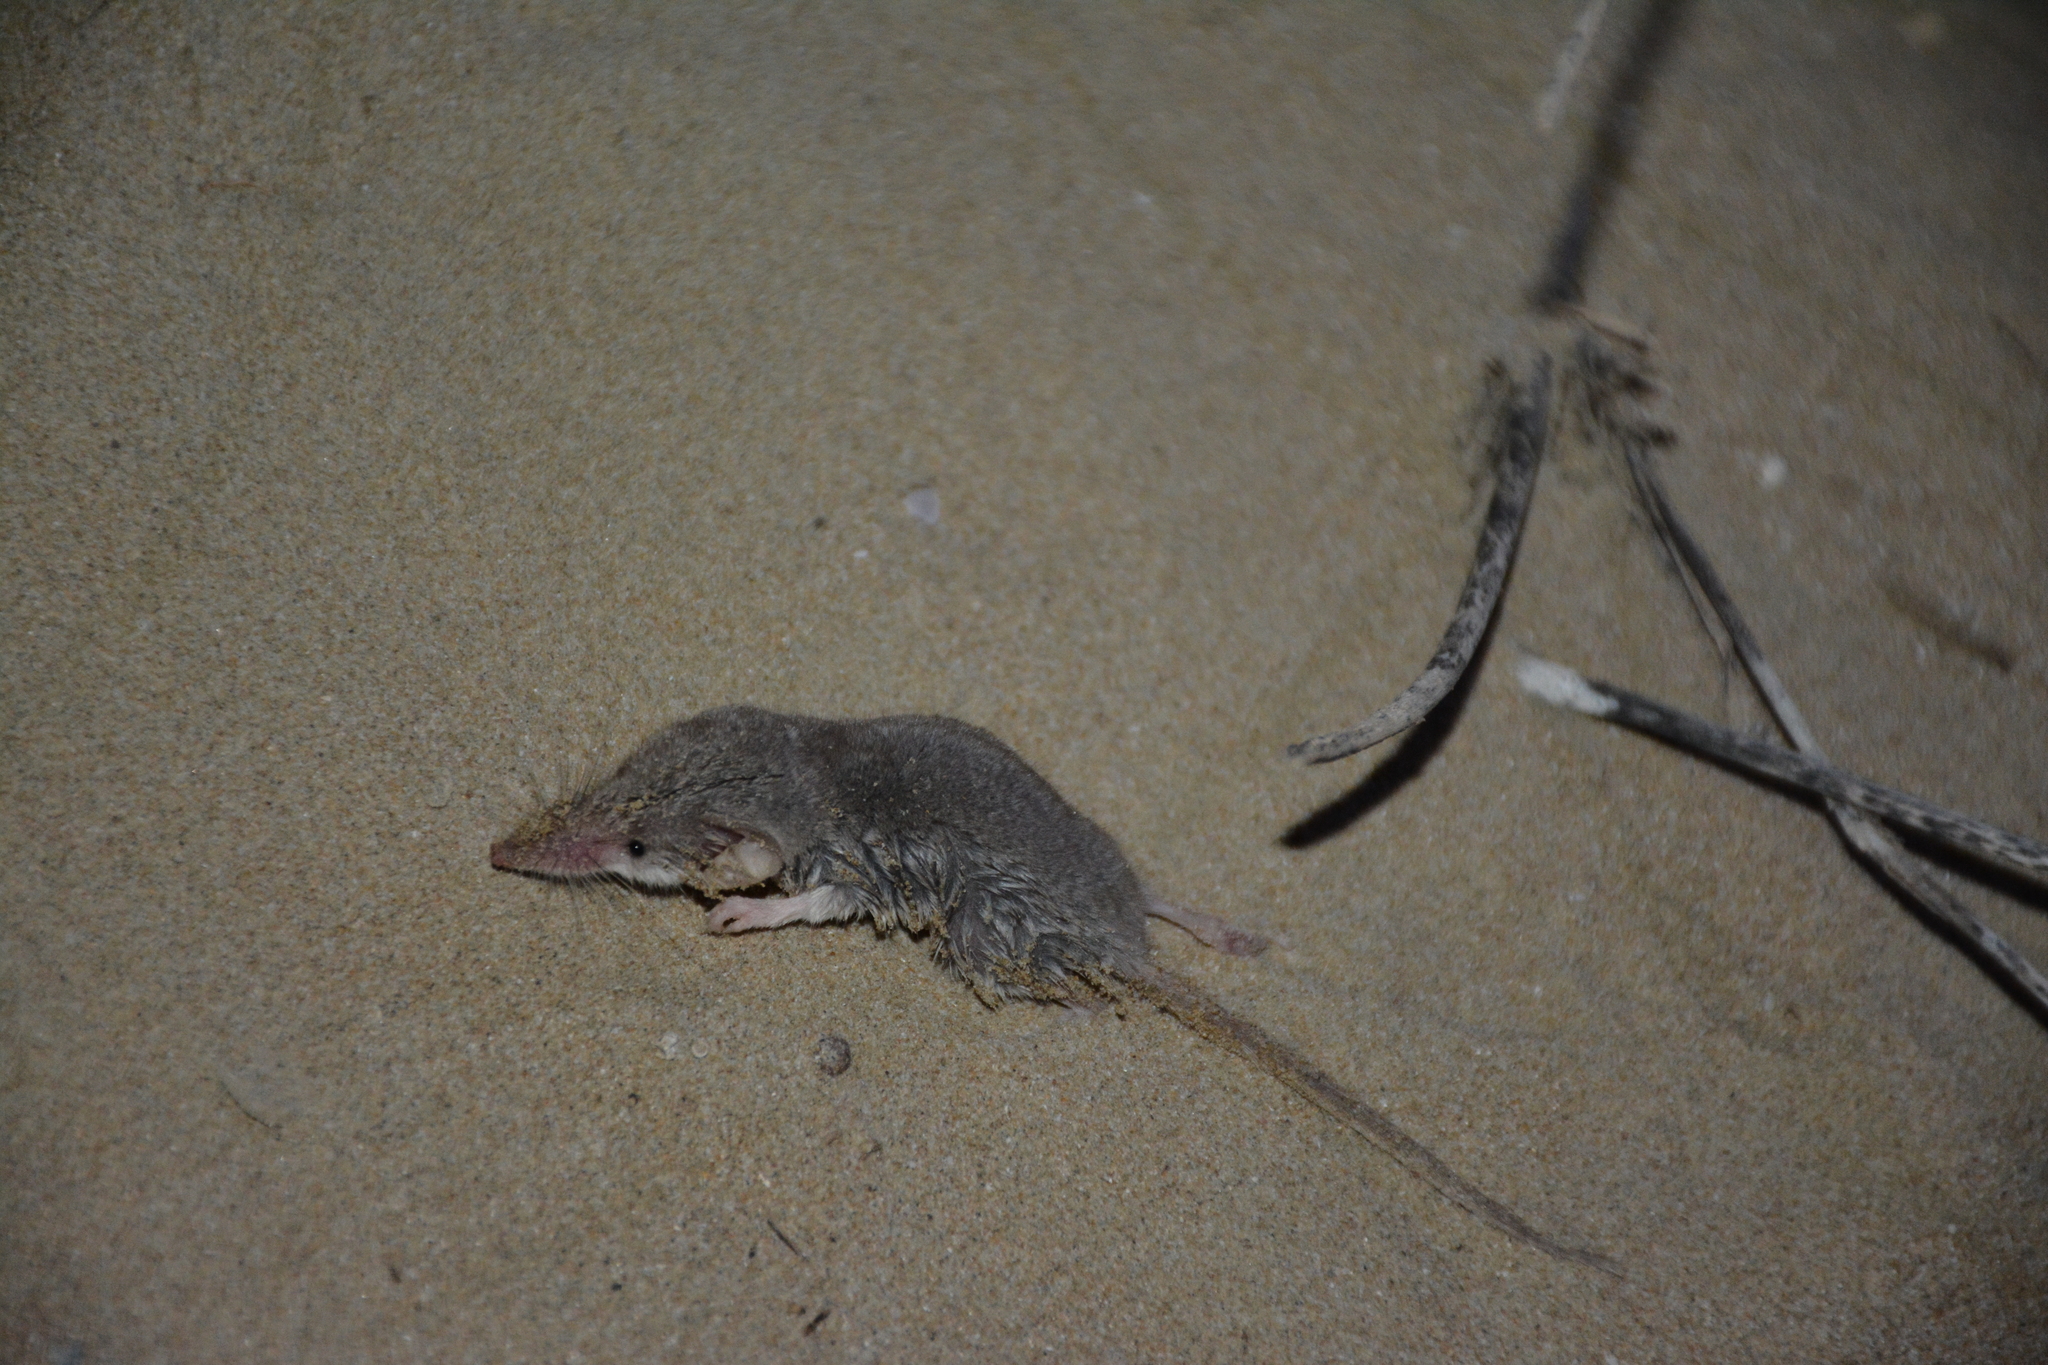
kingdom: Animalia
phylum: Chordata
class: Mammalia
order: Soricomorpha
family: Soricidae
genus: Crocidura
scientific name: Crocidura zarudnyi
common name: Zarudny's rock shrew
